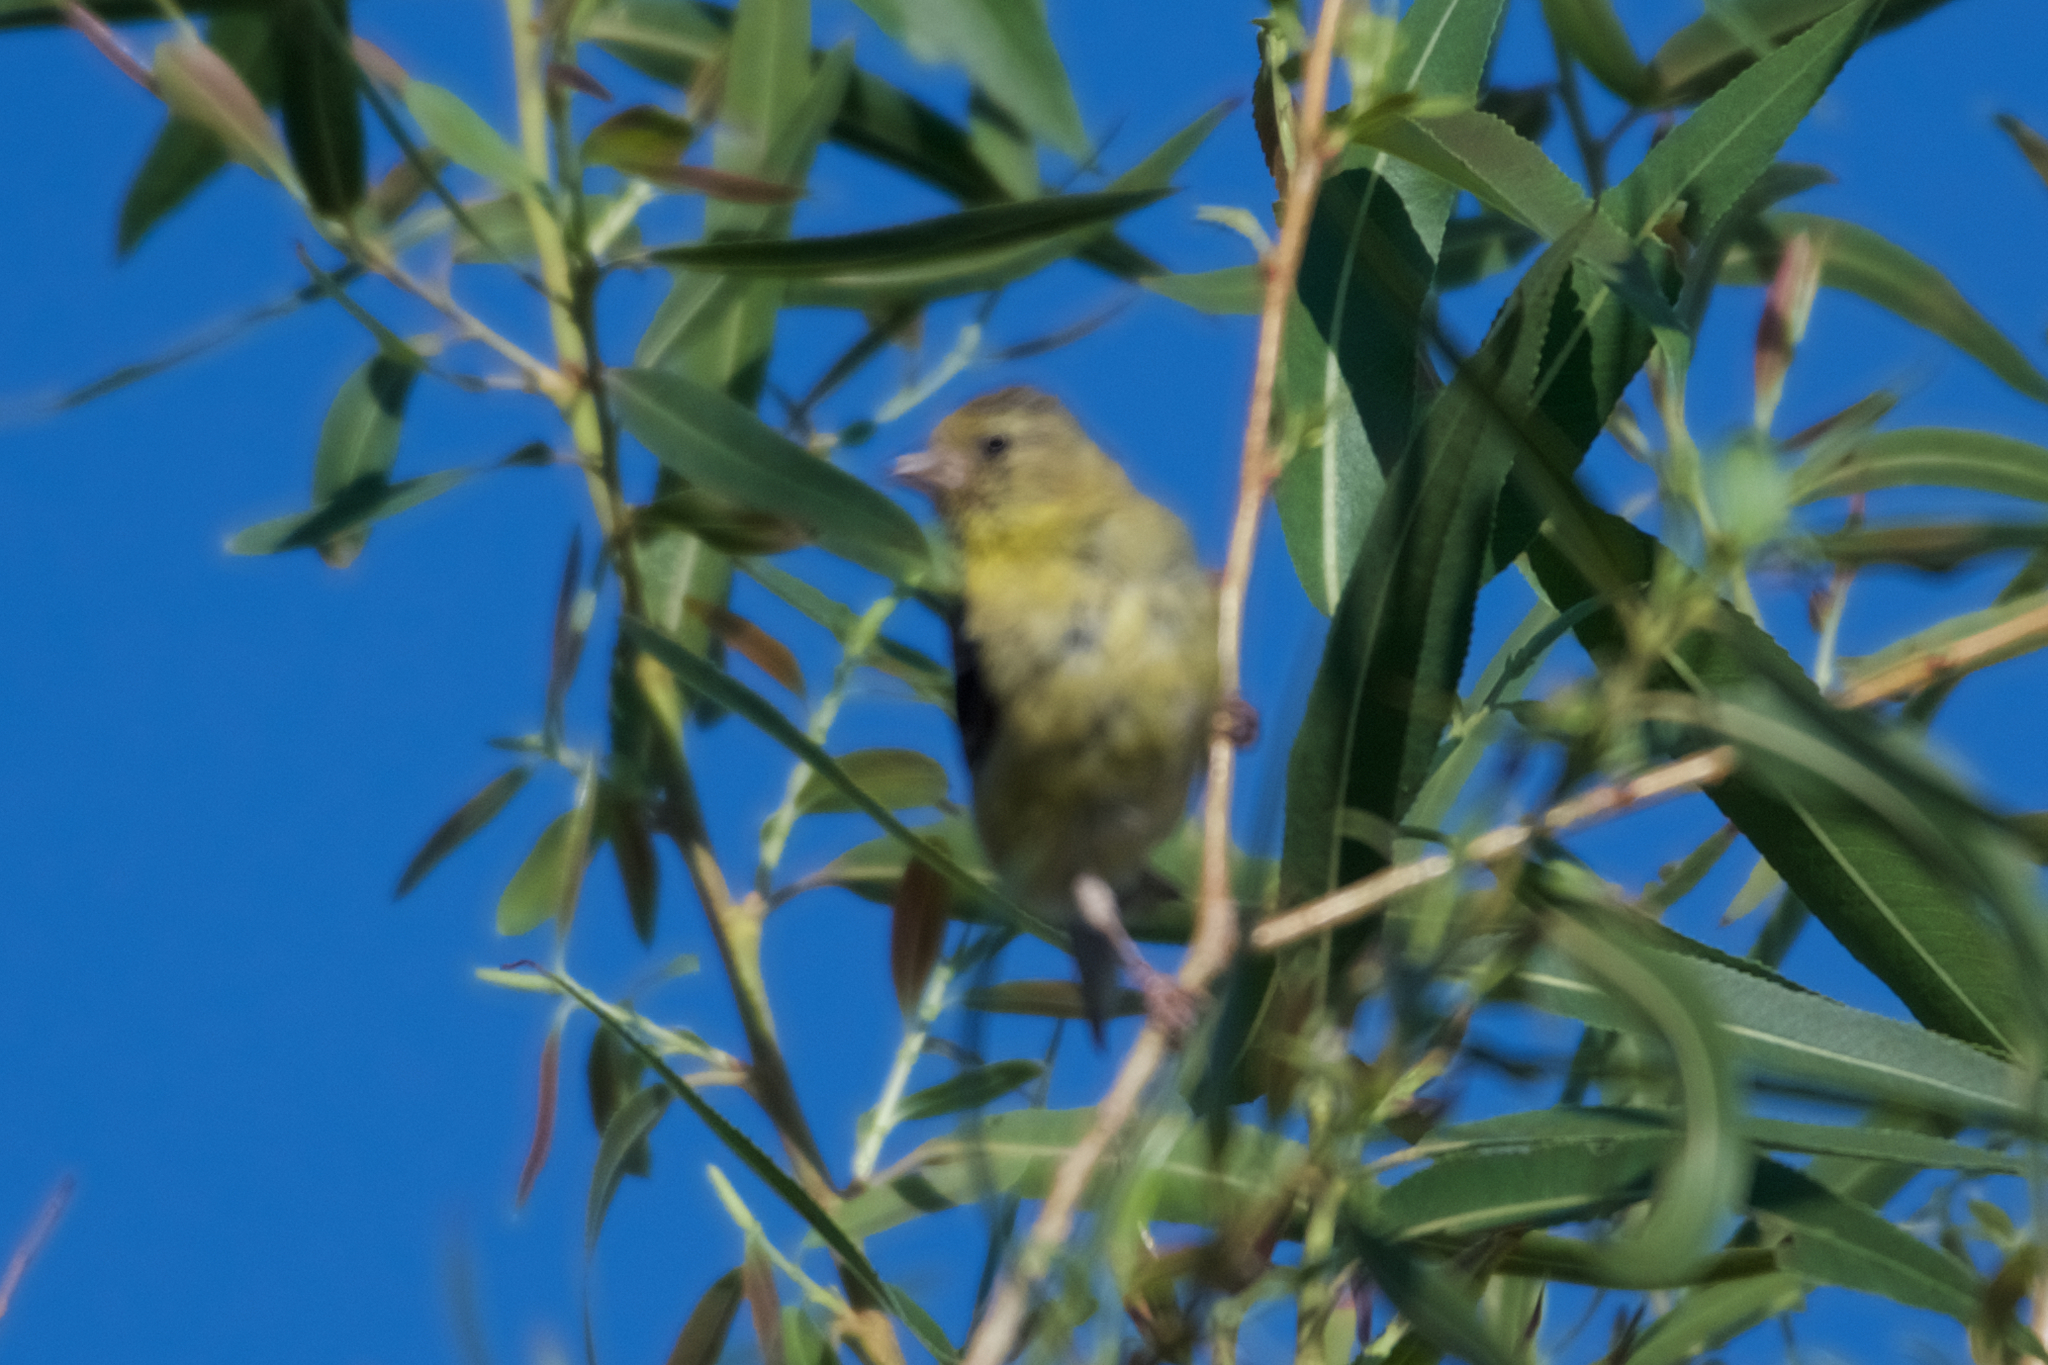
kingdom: Animalia
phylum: Chordata
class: Aves
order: Passeriformes
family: Fringillidae
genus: Spinus
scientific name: Spinus psaltria
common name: Lesser goldfinch
